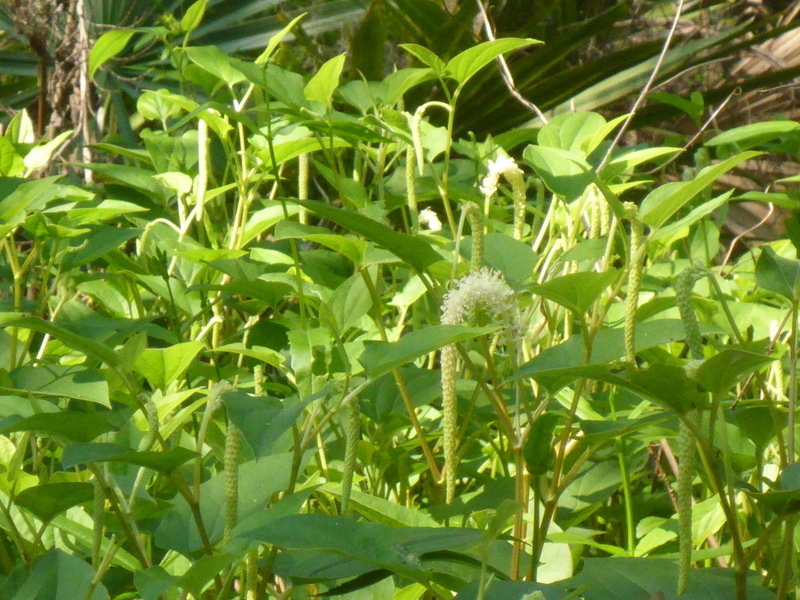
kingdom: Plantae
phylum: Tracheophyta
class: Magnoliopsida
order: Piperales
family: Saururaceae
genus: Saururus
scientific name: Saururus cernuus
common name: Lizard's-tail
